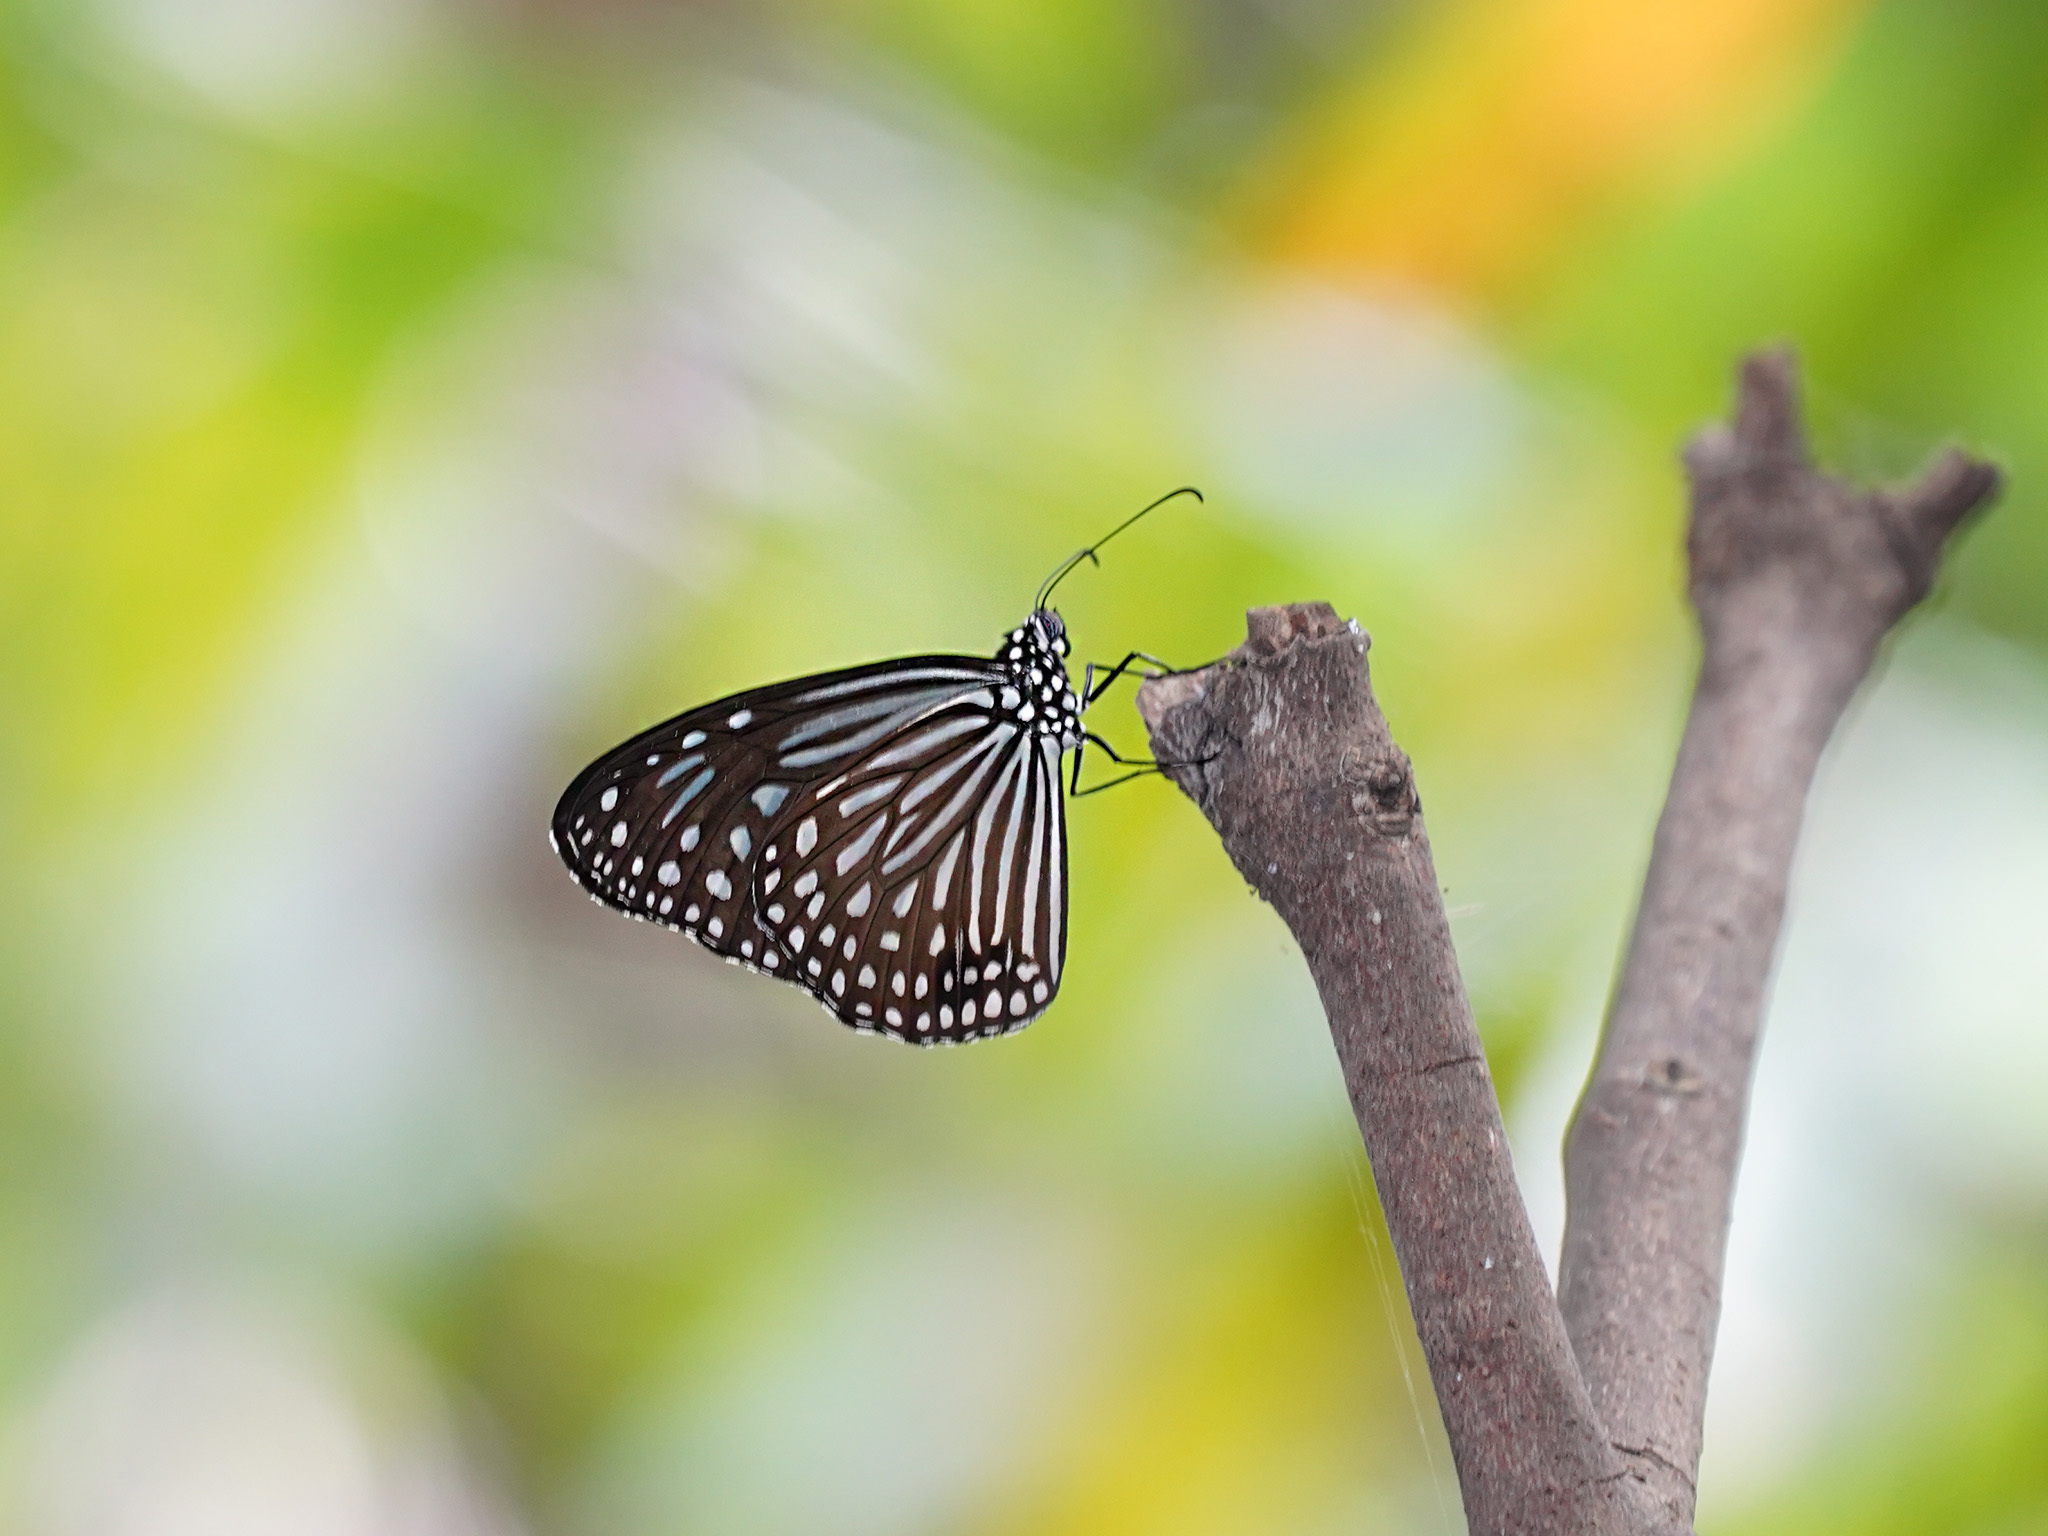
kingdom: Animalia
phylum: Arthropoda
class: Insecta
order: Lepidoptera
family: Nymphalidae
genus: Parantica
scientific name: Parantica agleoides
